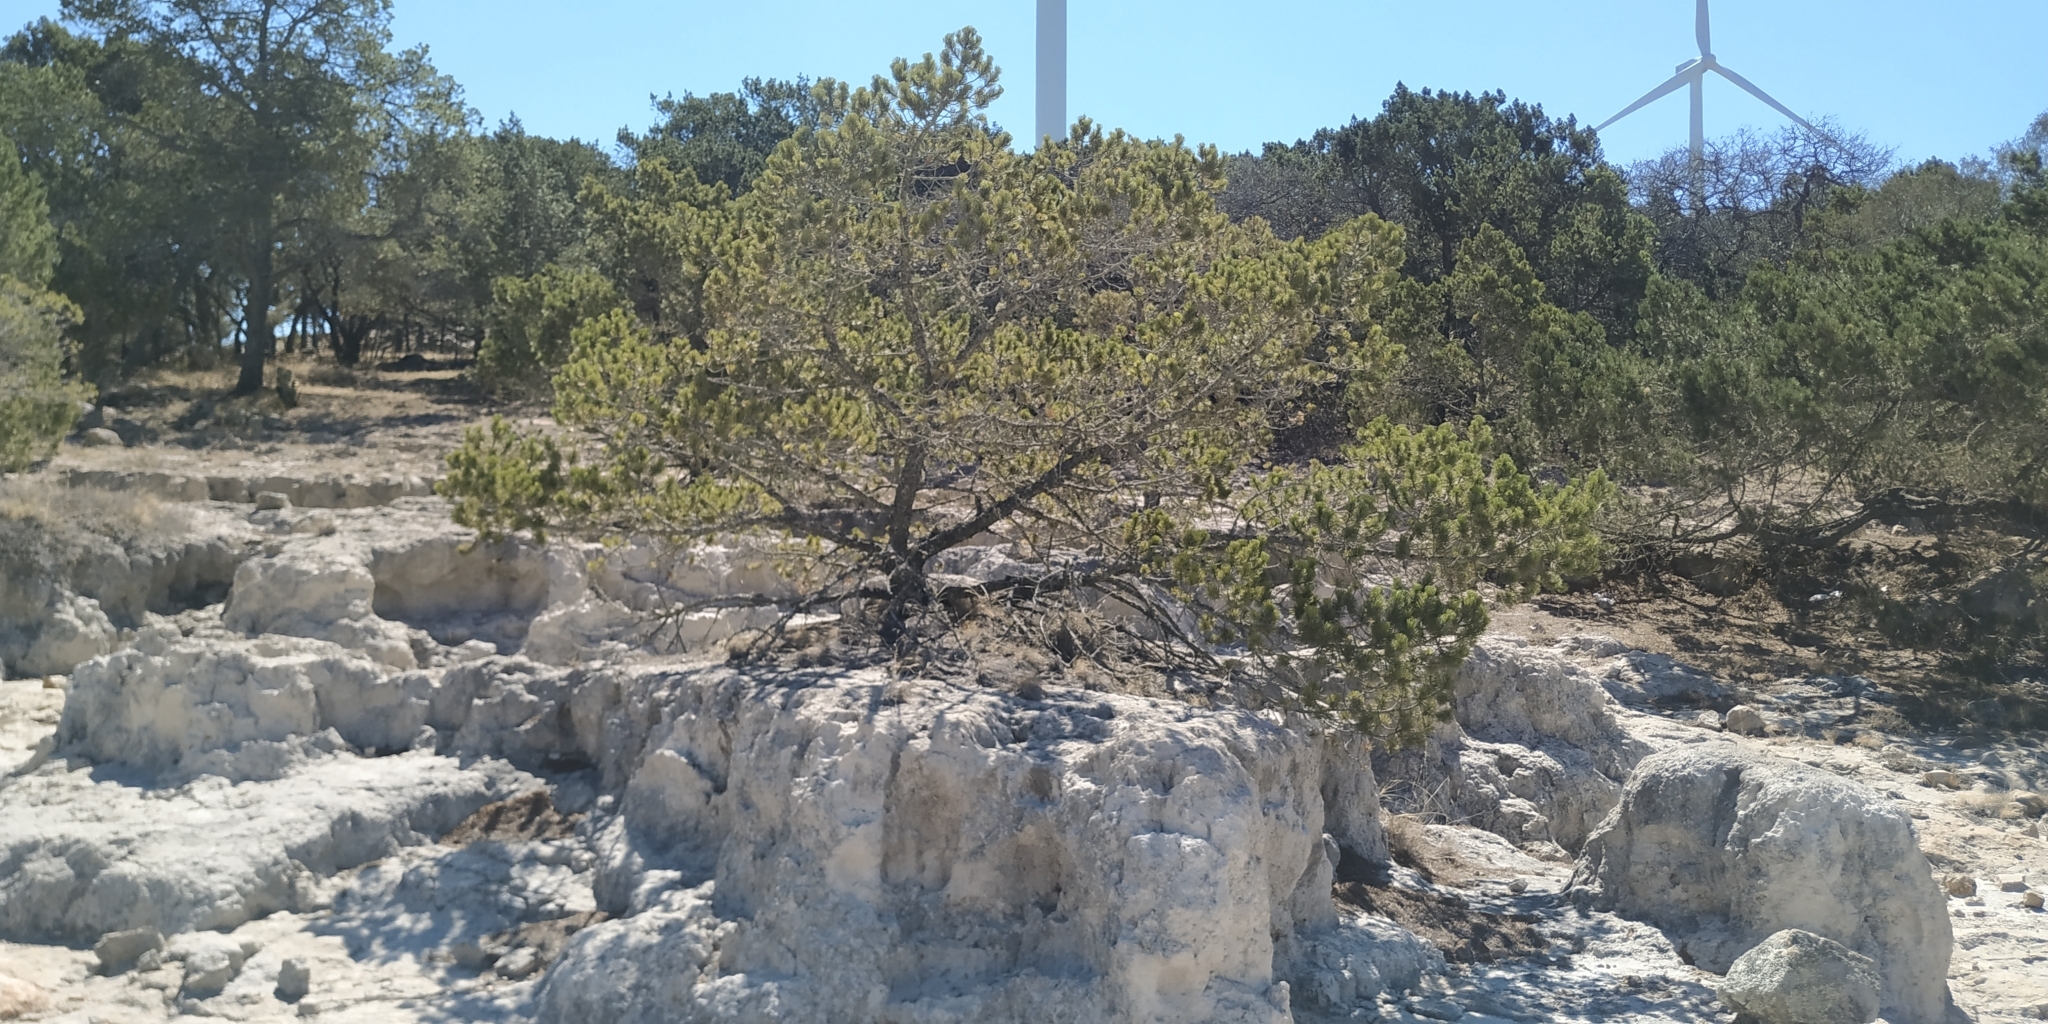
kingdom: Plantae
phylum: Tracheophyta
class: Pinopsida
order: Pinales
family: Pinaceae
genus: Pinus
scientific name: Pinus cembroides
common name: Mexican nut pine
